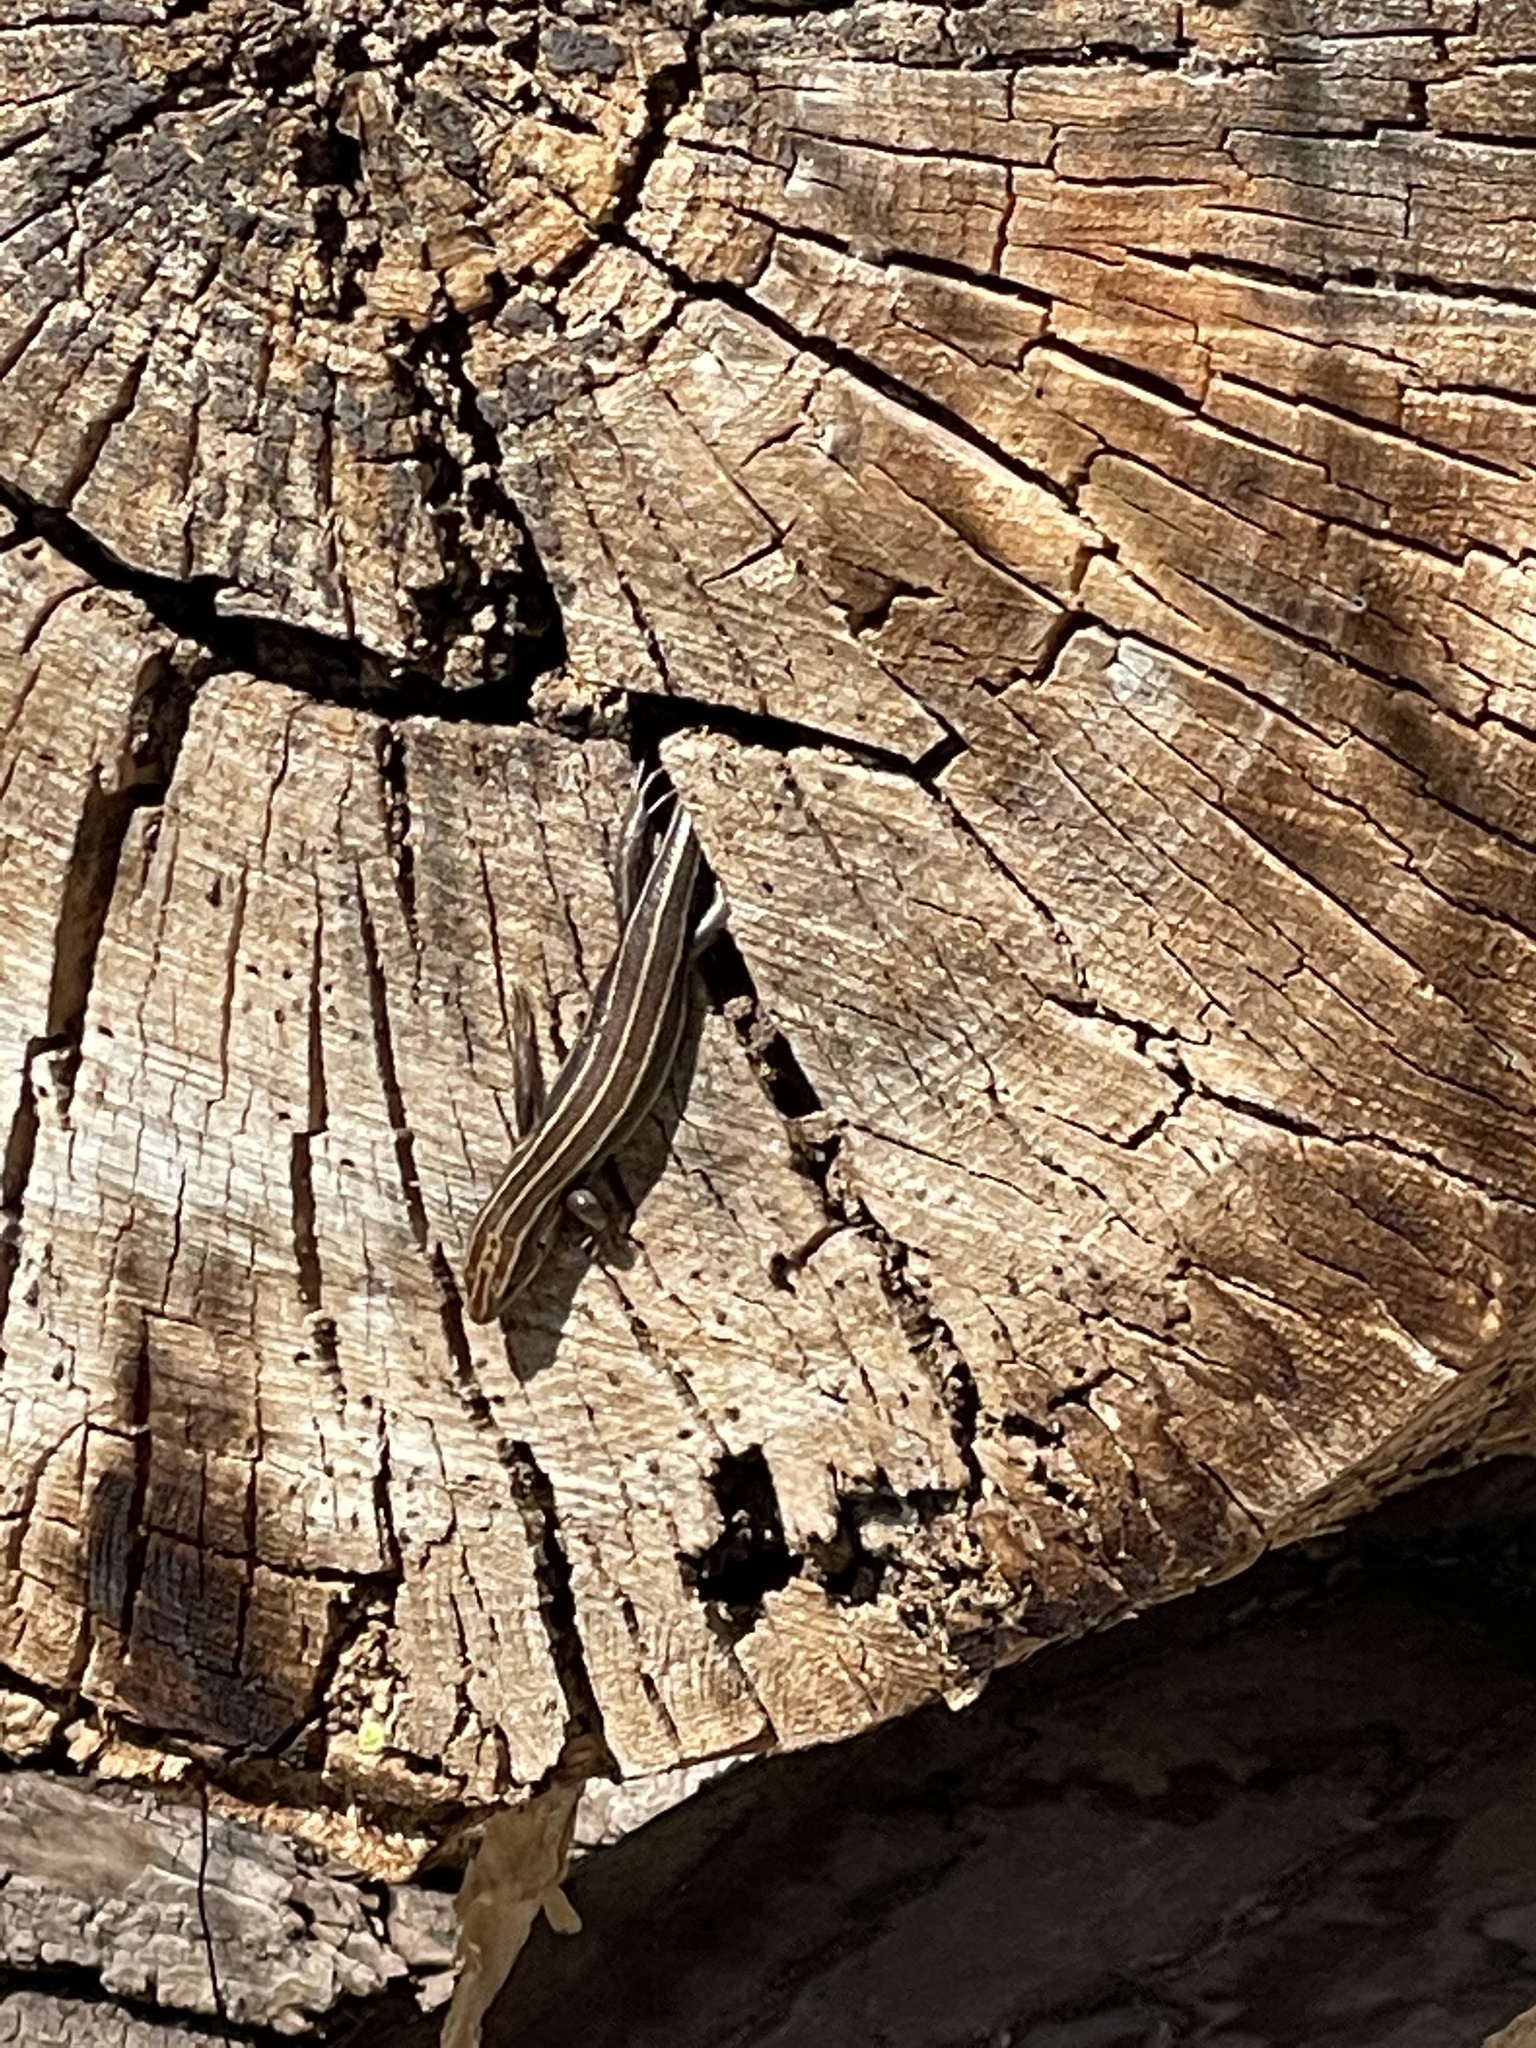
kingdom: Animalia
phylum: Chordata
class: Squamata
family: Scincidae
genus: Plestiodon
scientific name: Plestiodon fasciatus
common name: Five-lined skink
